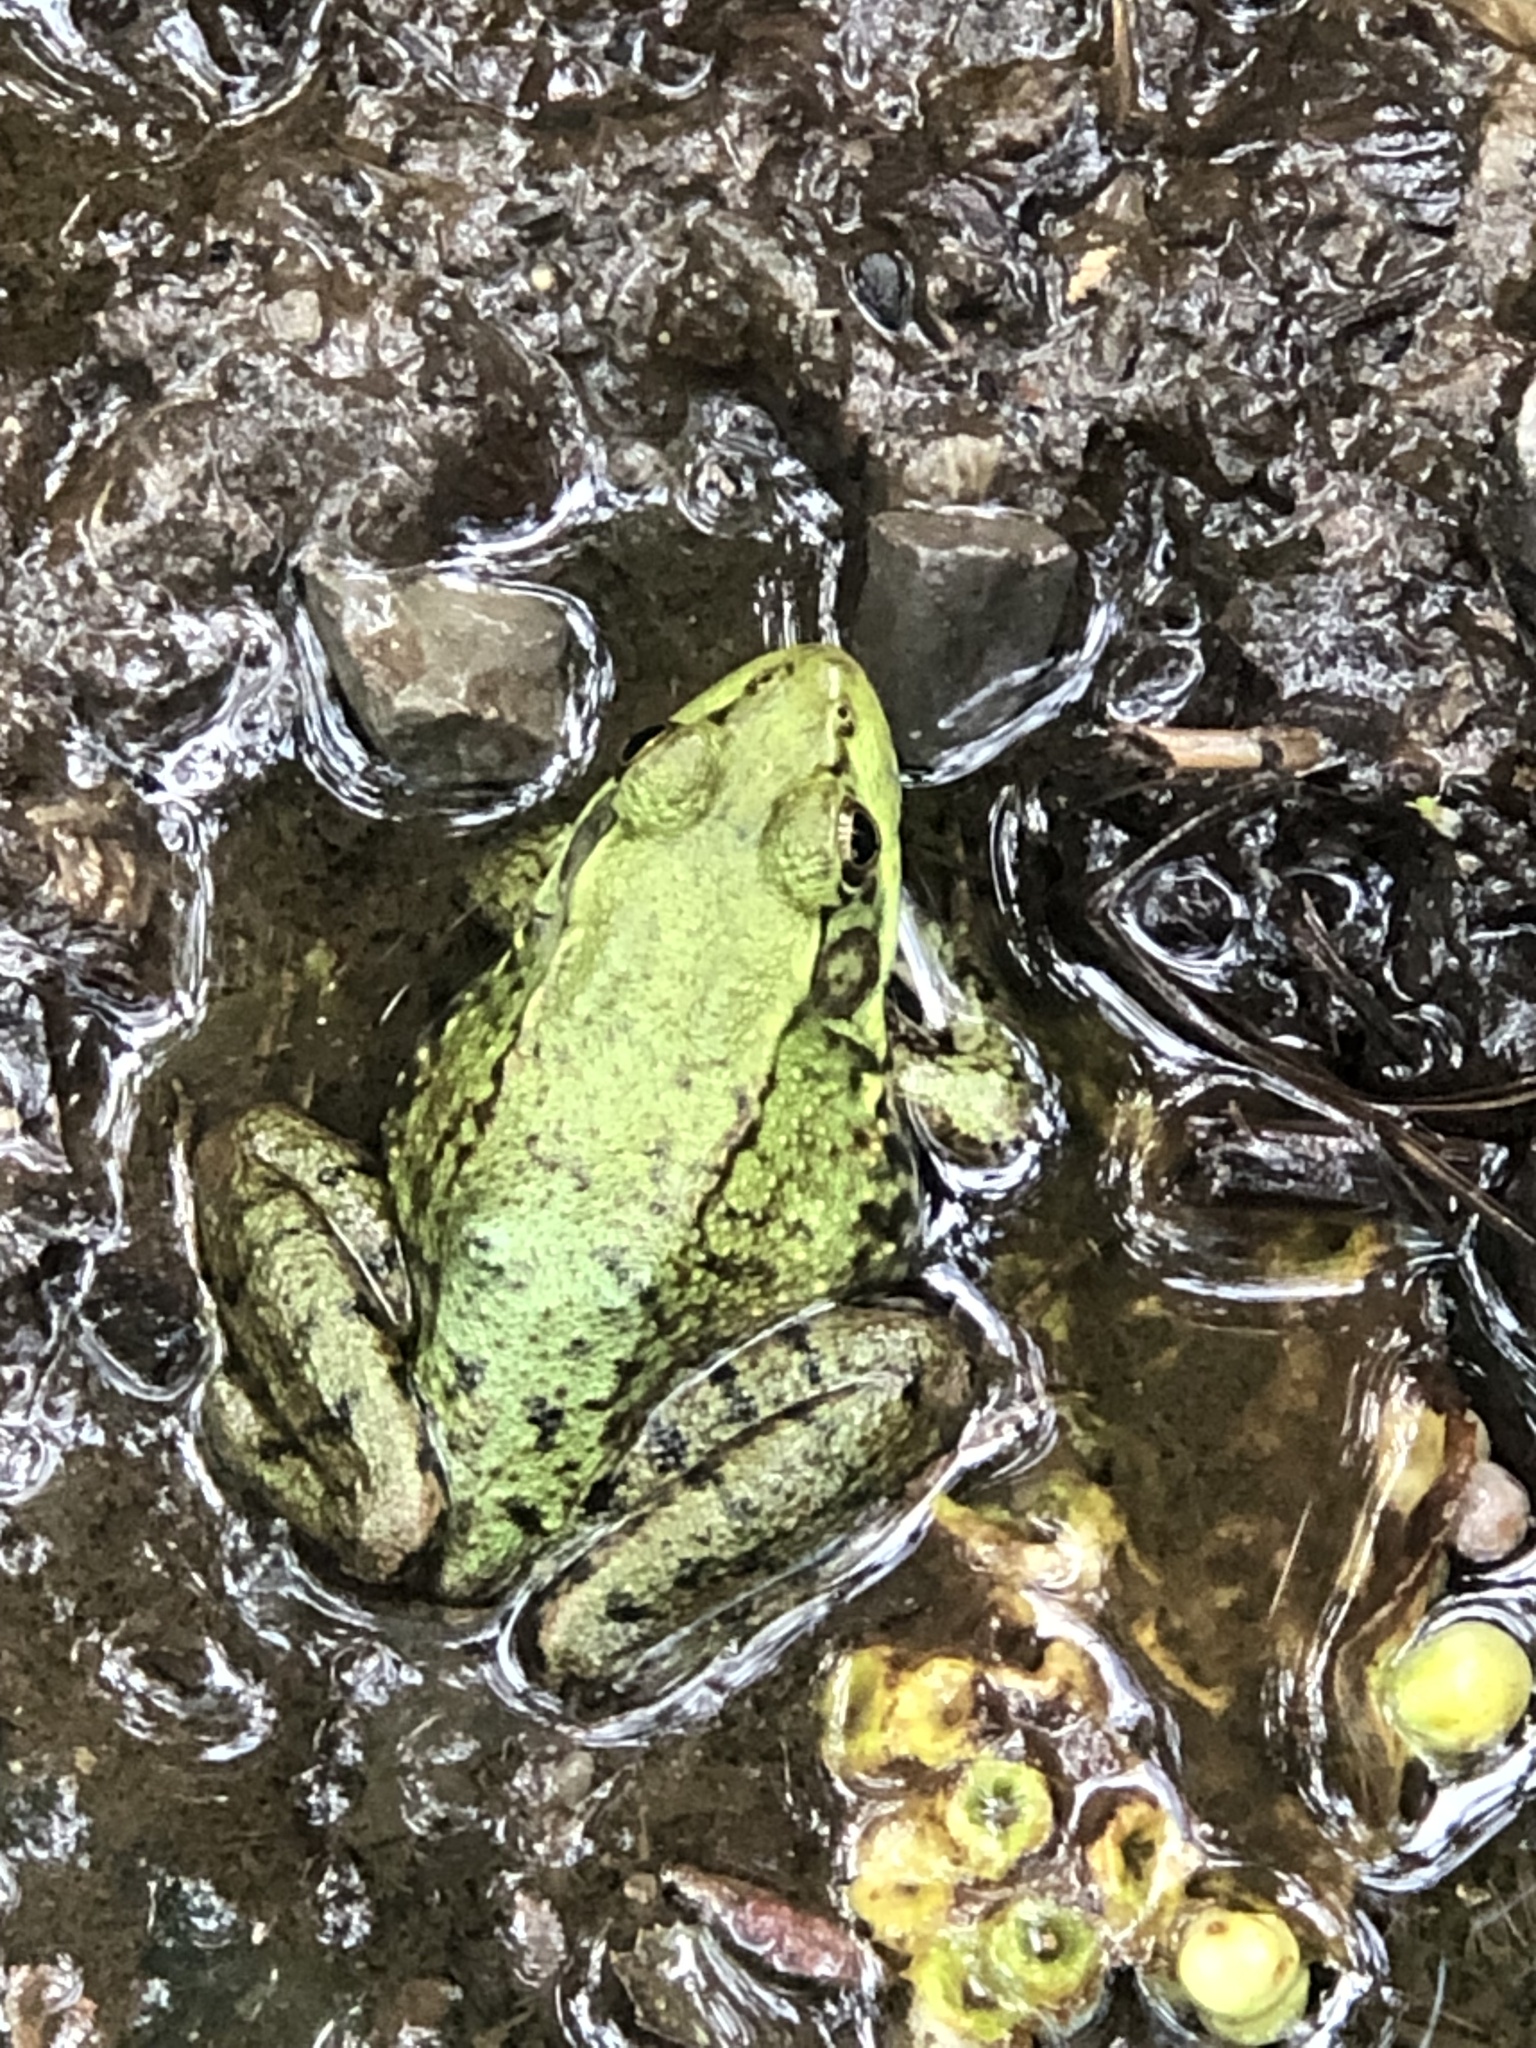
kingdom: Animalia
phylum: Chordata
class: Amphibia
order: Anura
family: Ranidae
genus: Lithobates
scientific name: Lithobates clamitans
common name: Green frog
